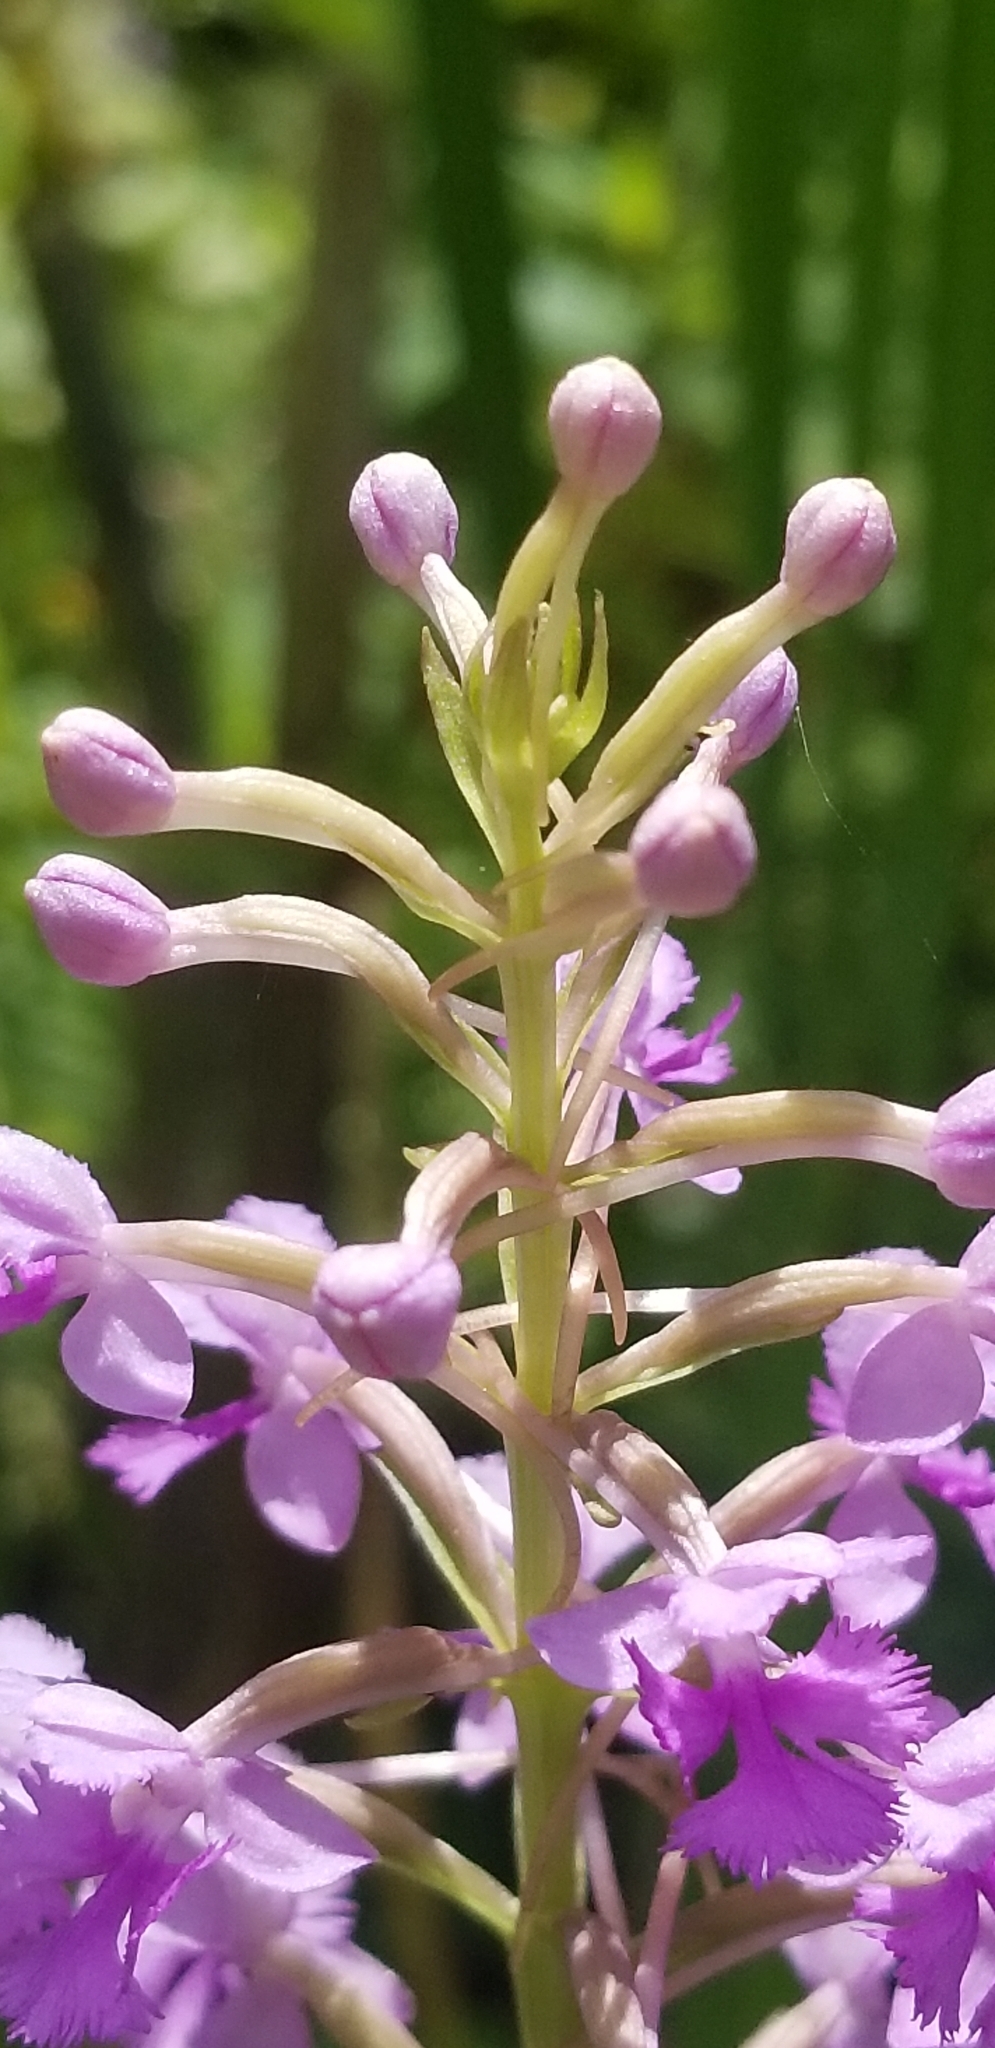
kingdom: Plantae
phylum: Tracheophyta
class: Liliopsida
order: Asparagales
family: Orchidaceae
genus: Platanthera
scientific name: Platanthera psycodes
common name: Lesser purple fringed orchid
